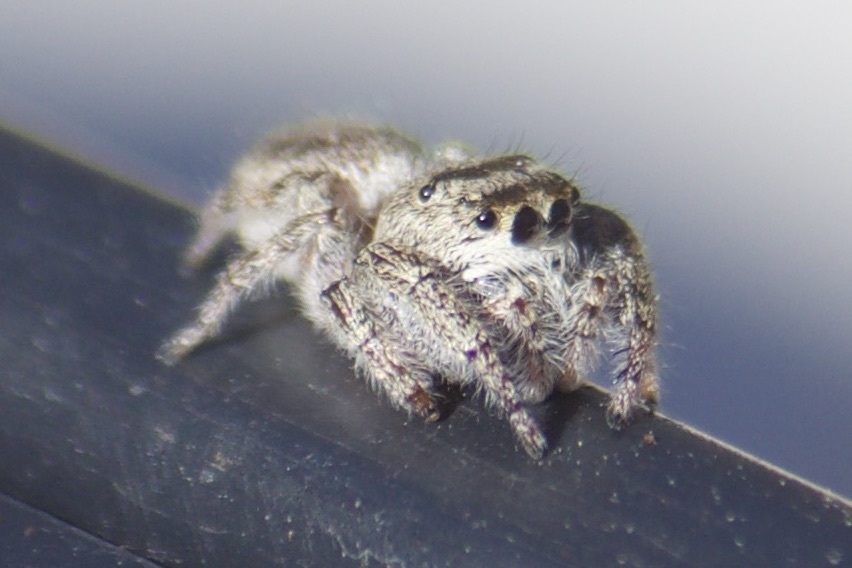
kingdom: Animalia
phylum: Arthropoda
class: Arachnida
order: Araneae
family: Salticidae
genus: Eris
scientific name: Eris militaris
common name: Bronze jumper
